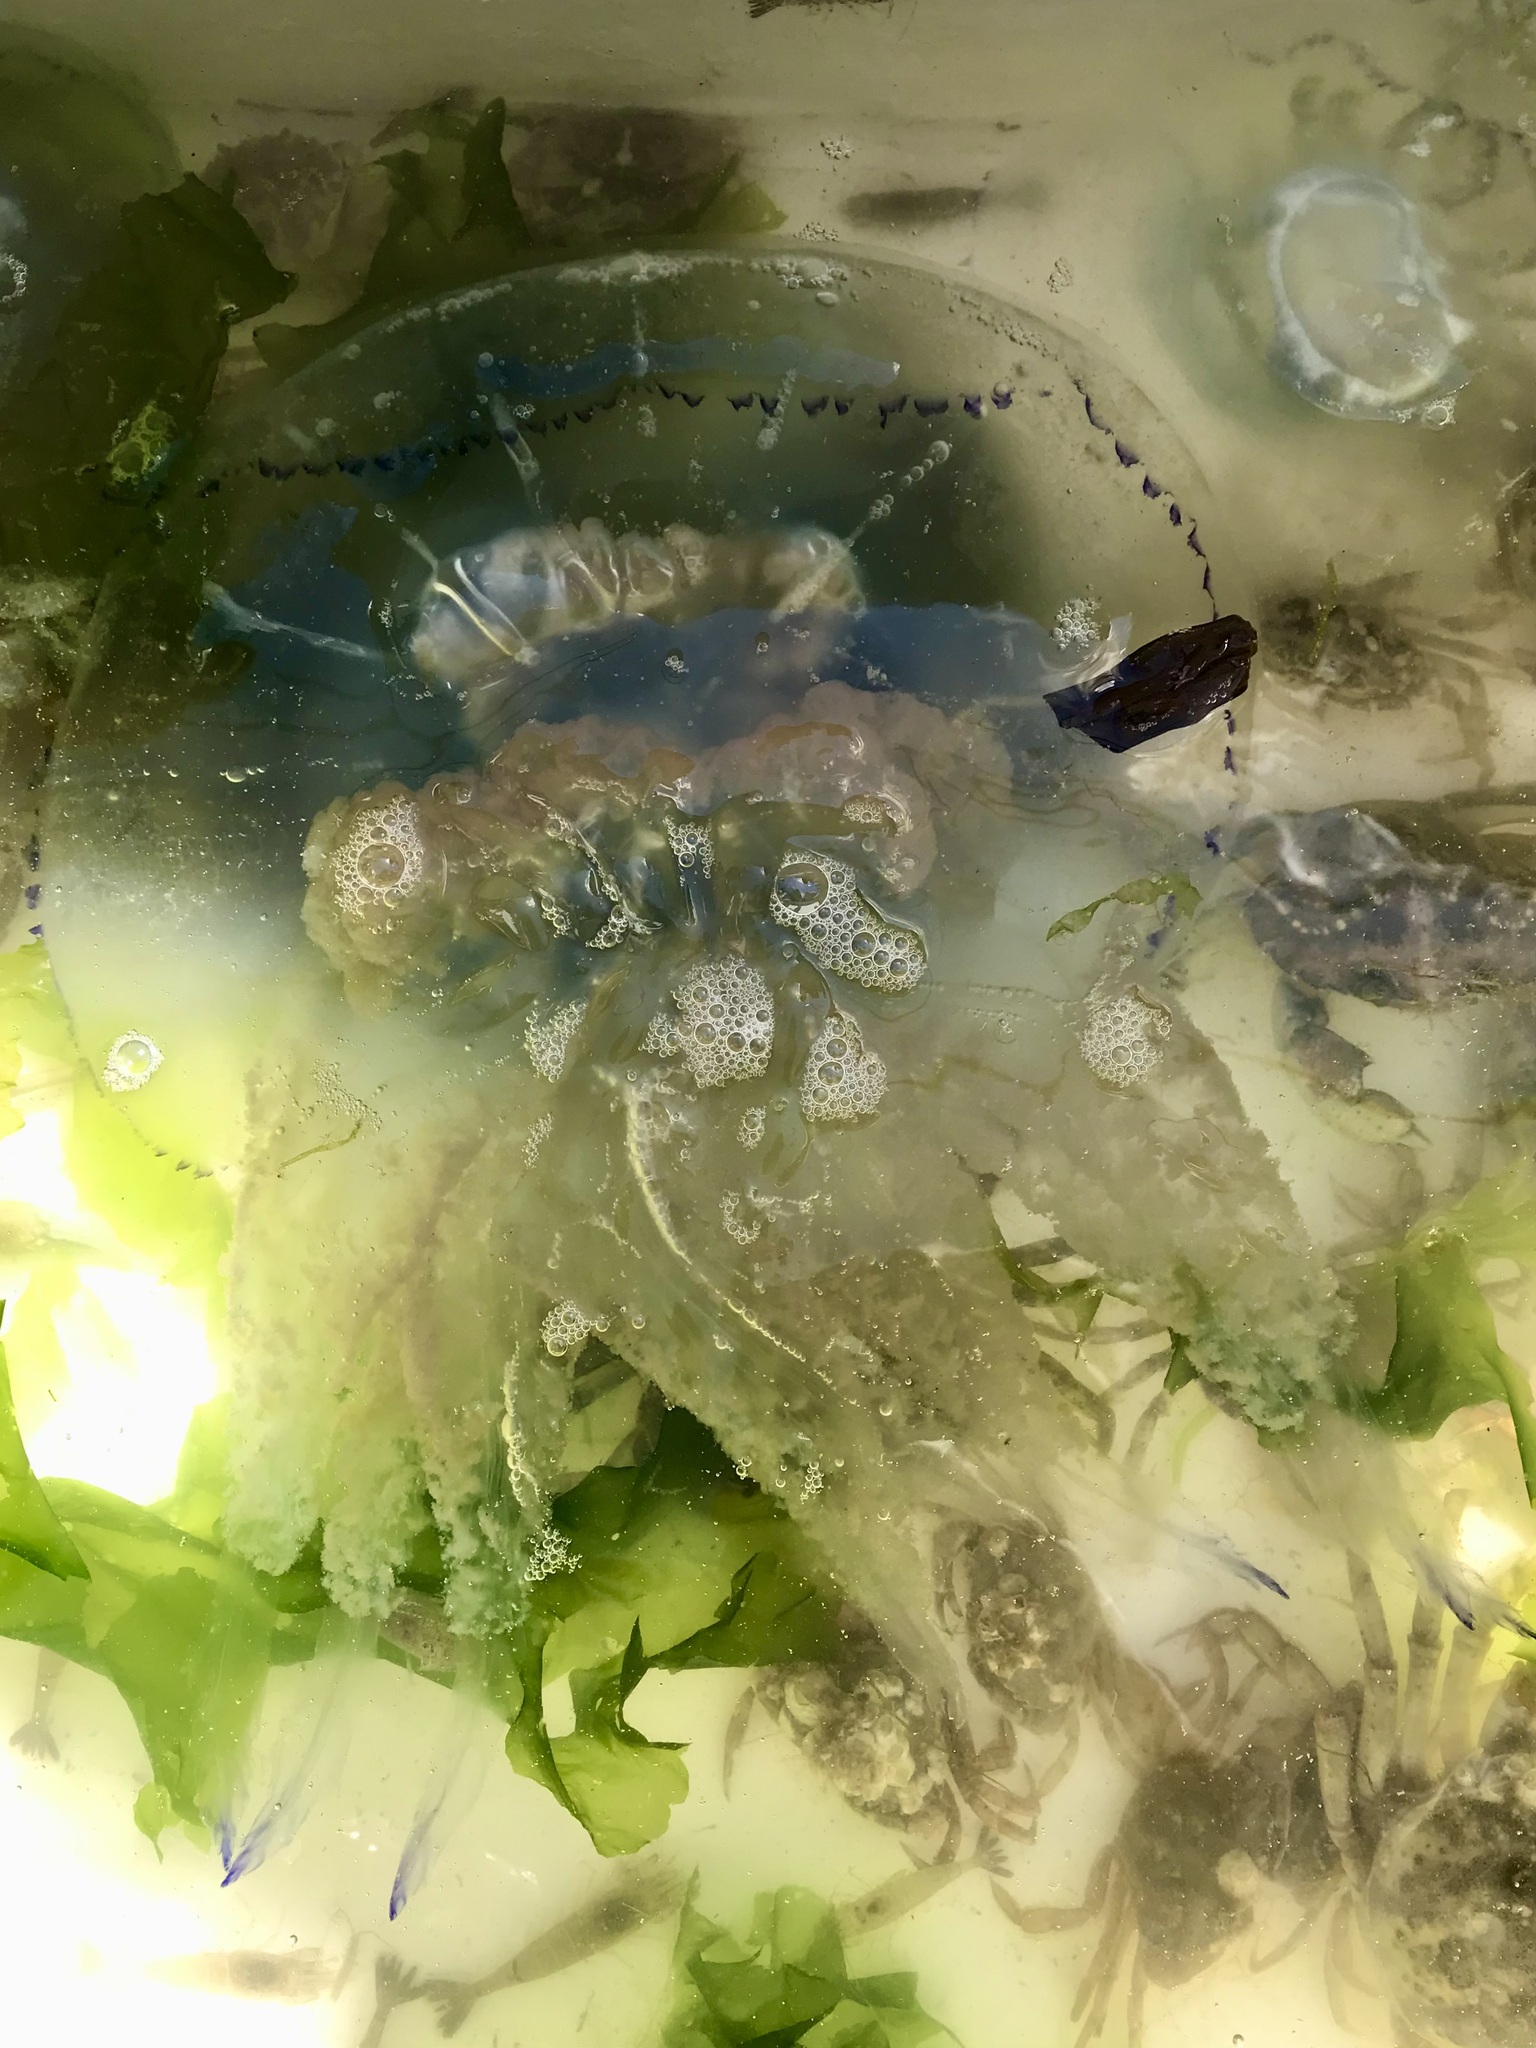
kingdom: Animalia
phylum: Cnidaria
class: Scyphozoa
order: Rhizostomeae
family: Rhizostomatidae
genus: Rhizostoma
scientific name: Rhizostoma octopus
